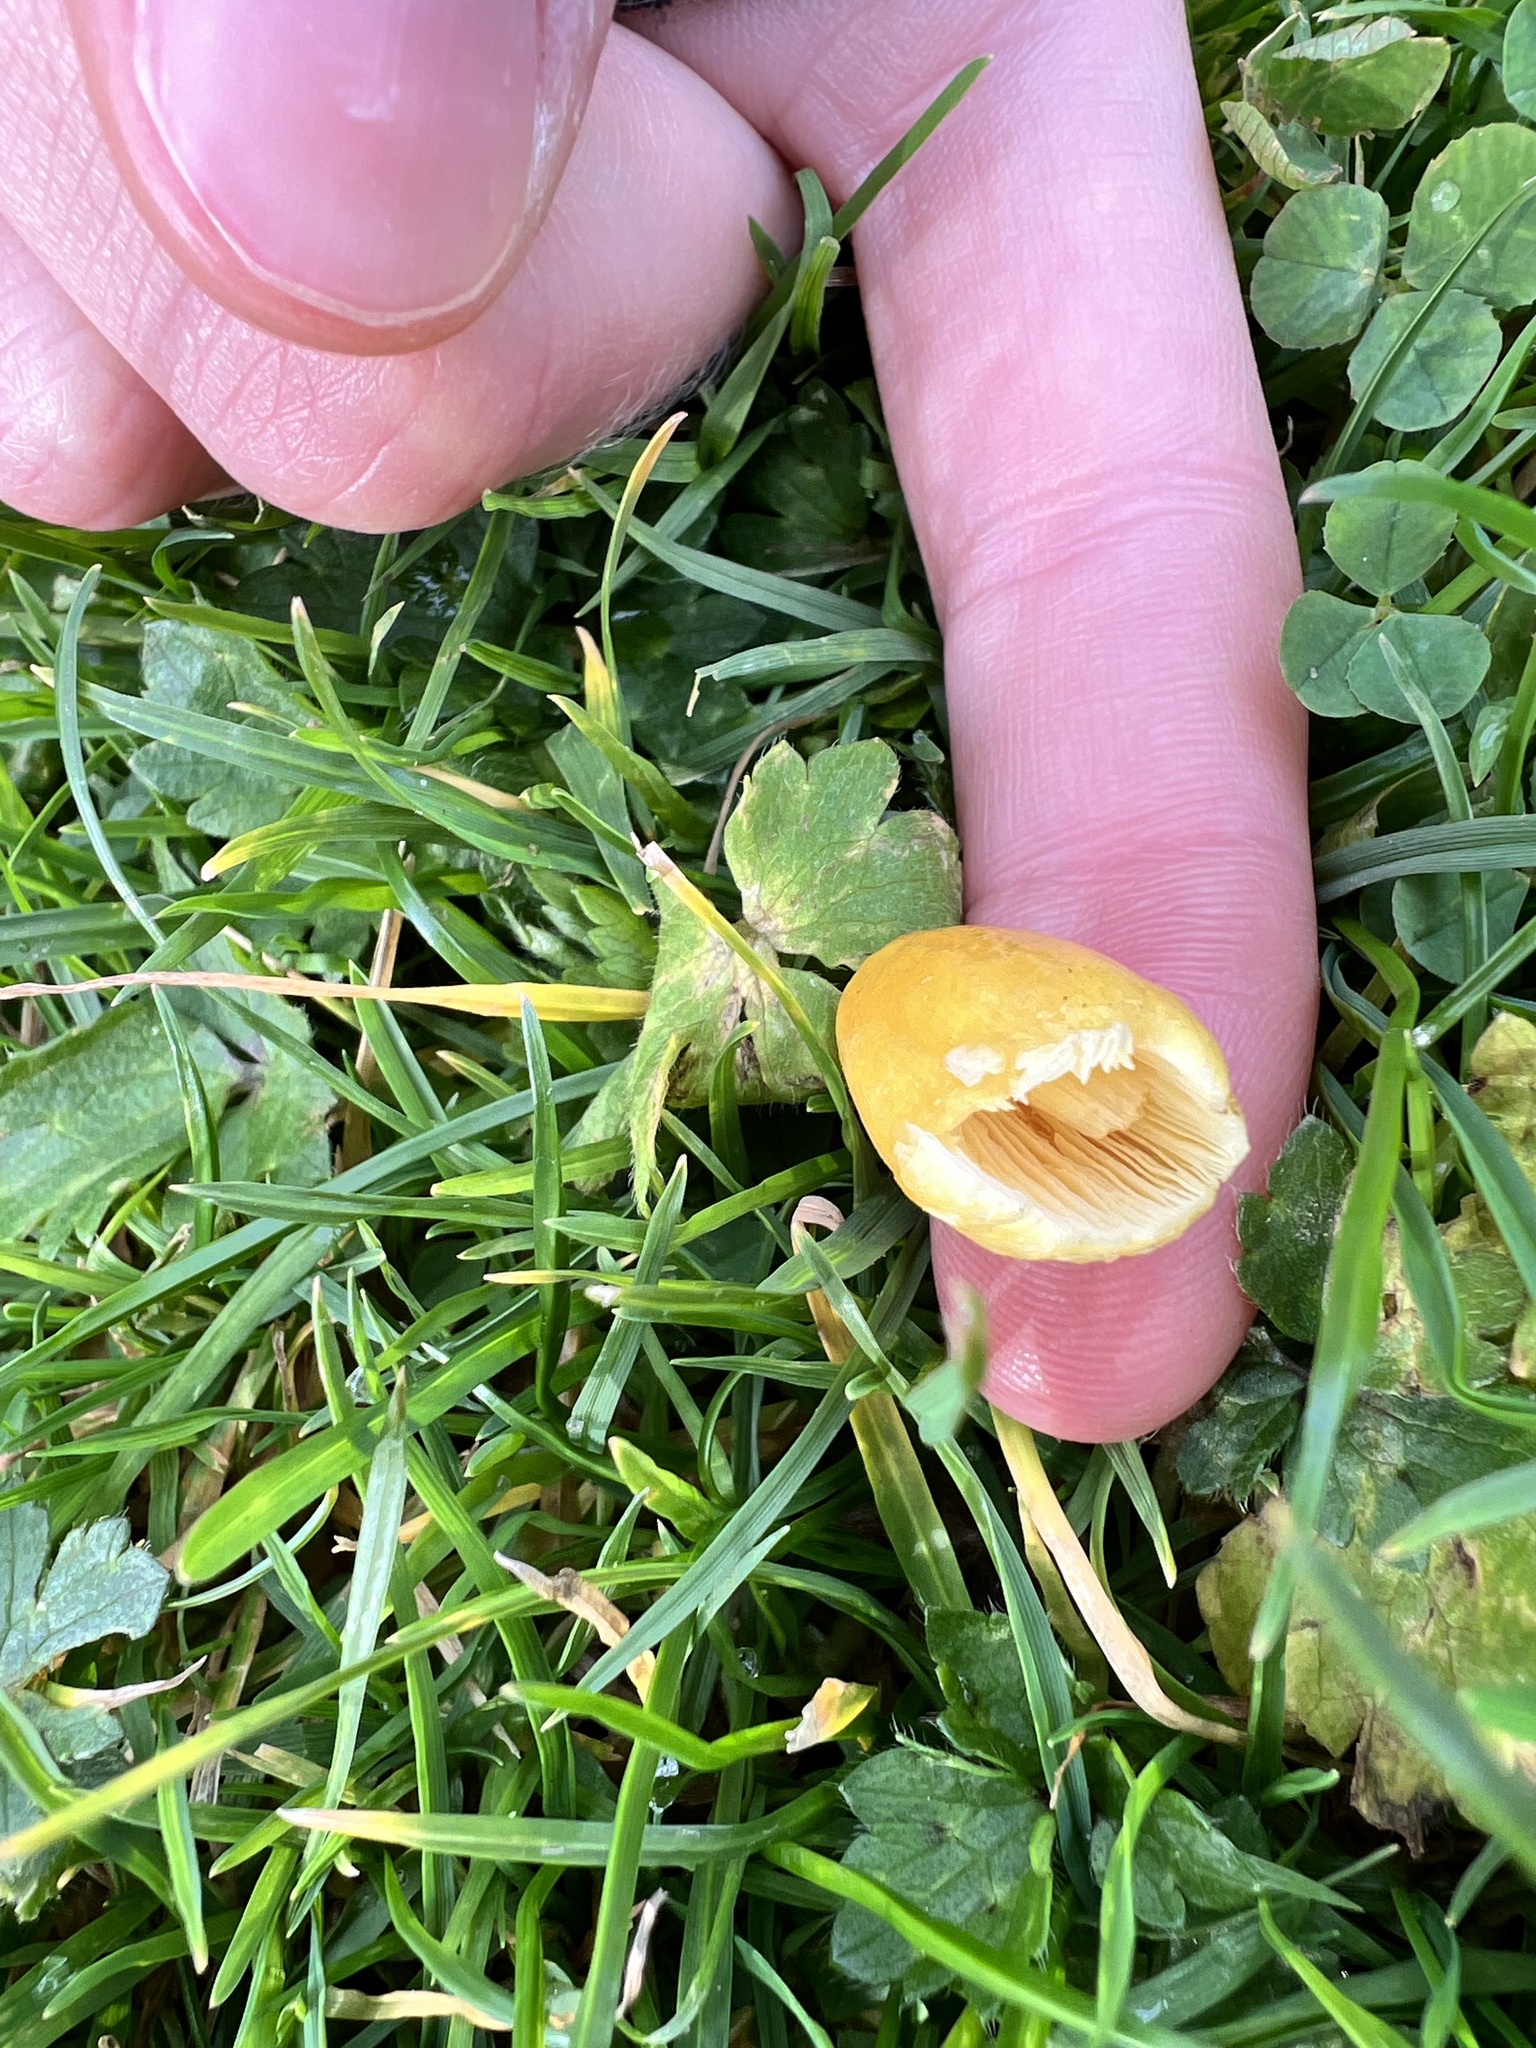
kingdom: Fungi
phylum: Basidiomycota
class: Agaricomycetes
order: Agaricales
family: Bolbitiaceae
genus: Bolbitius
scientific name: Bolbitius titubans
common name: Yellow fieldcap
